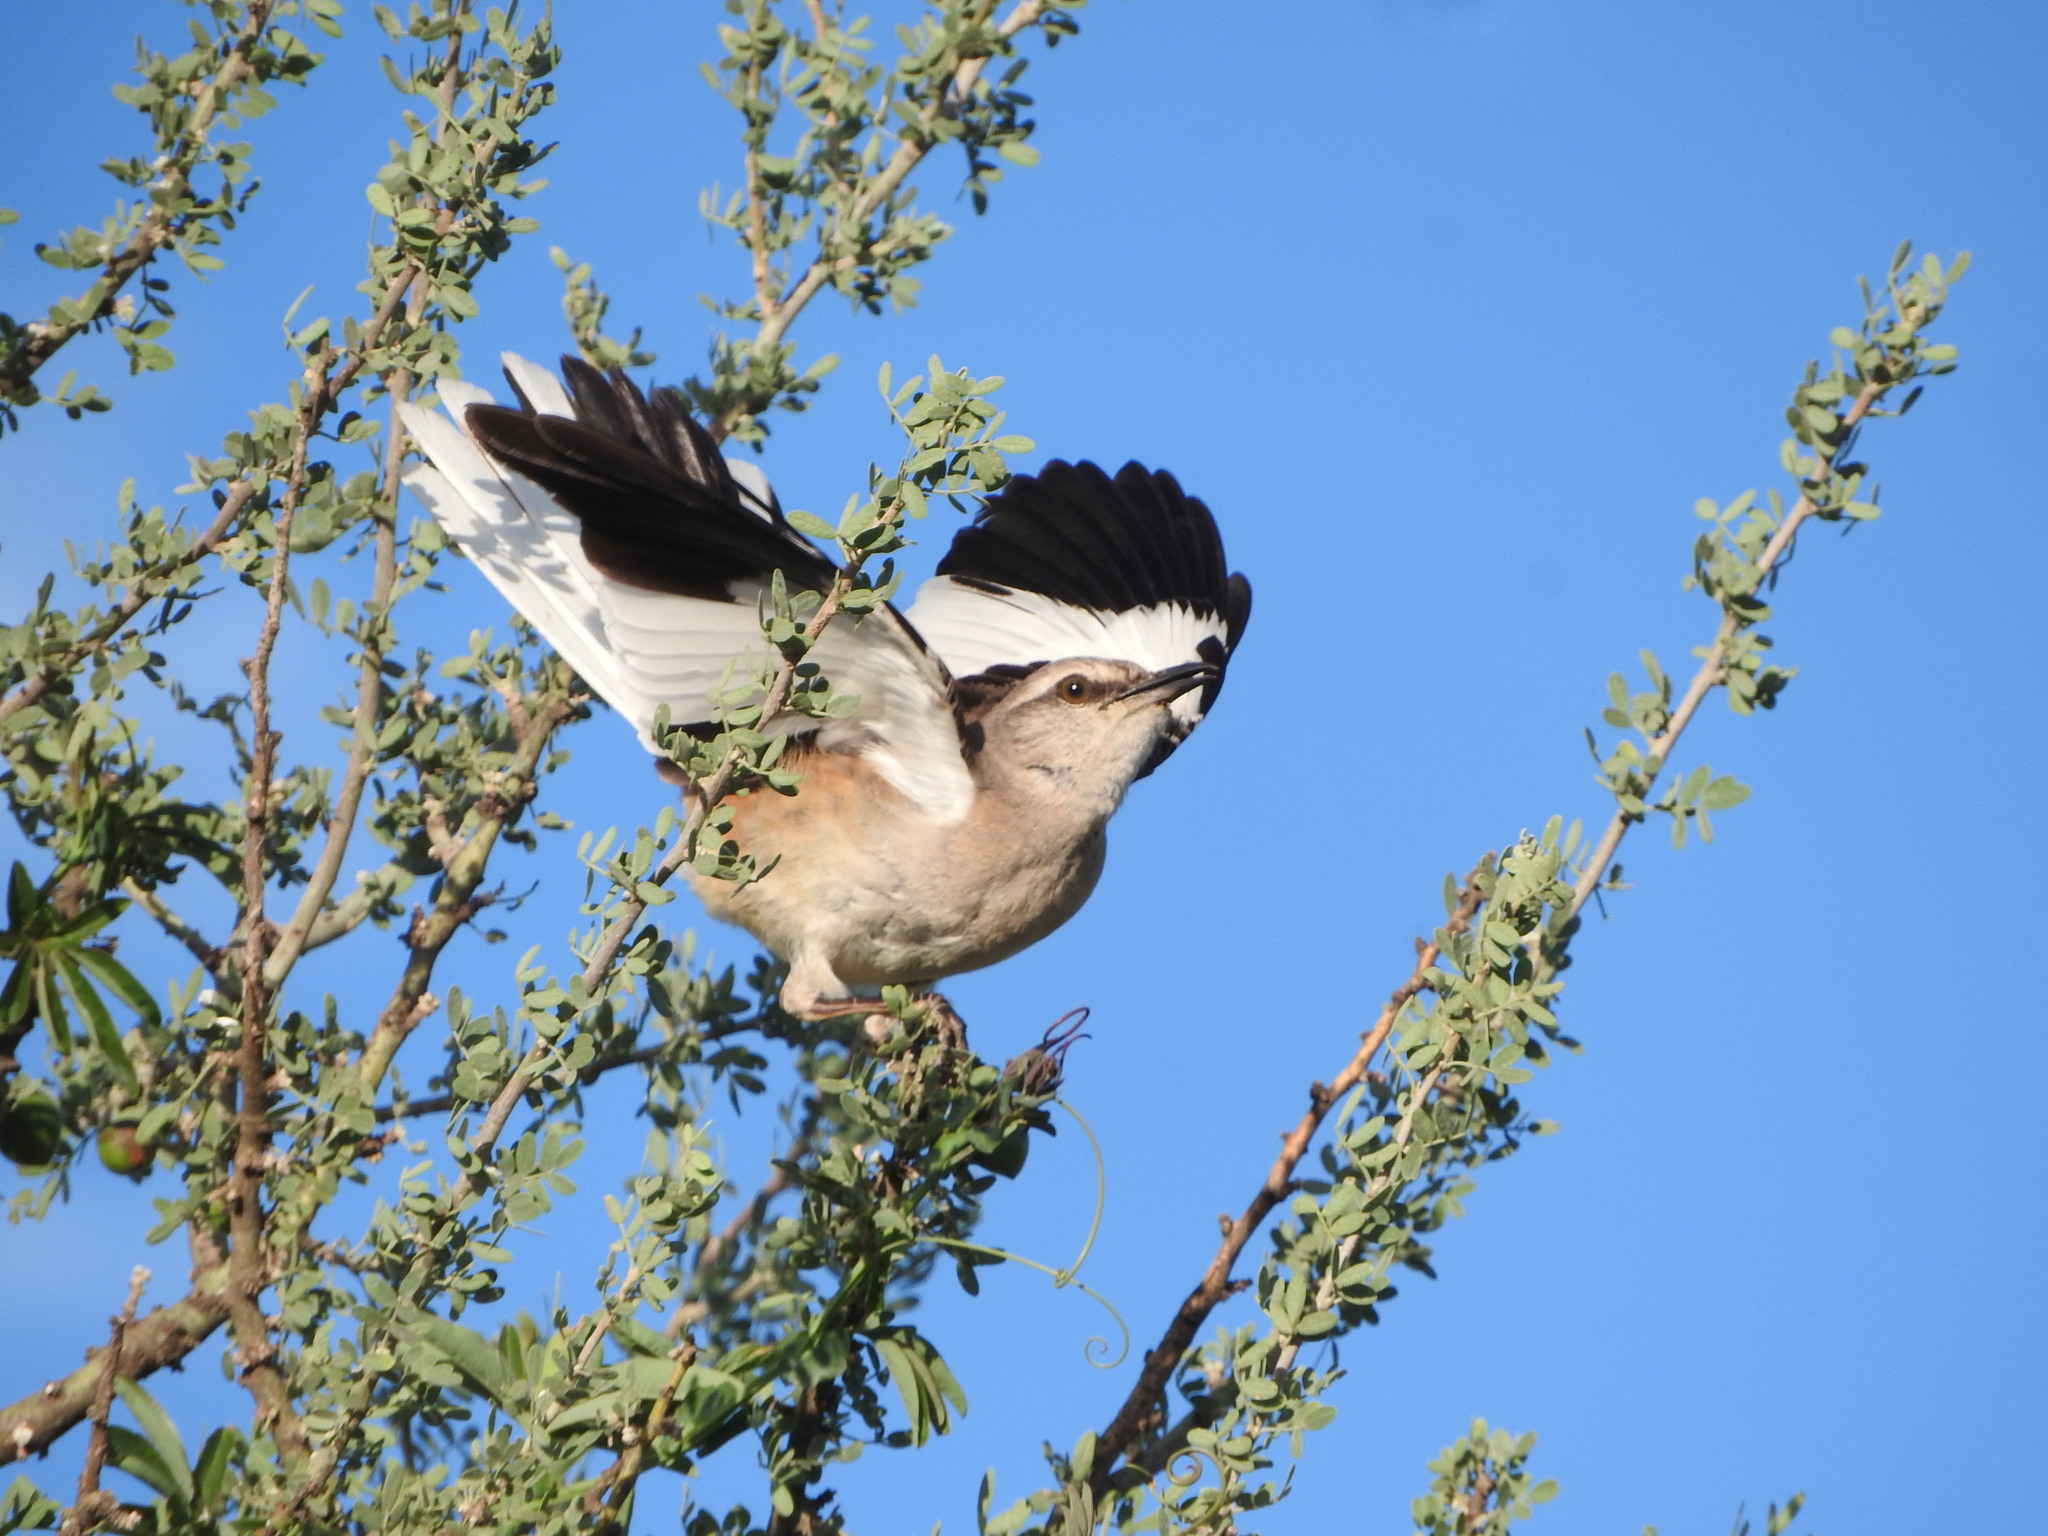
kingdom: Animalia
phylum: Chordata
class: Aves
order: Passeriformes
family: Mimidae
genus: Mimus
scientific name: Mimus triurus
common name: White-banded mockingbird
